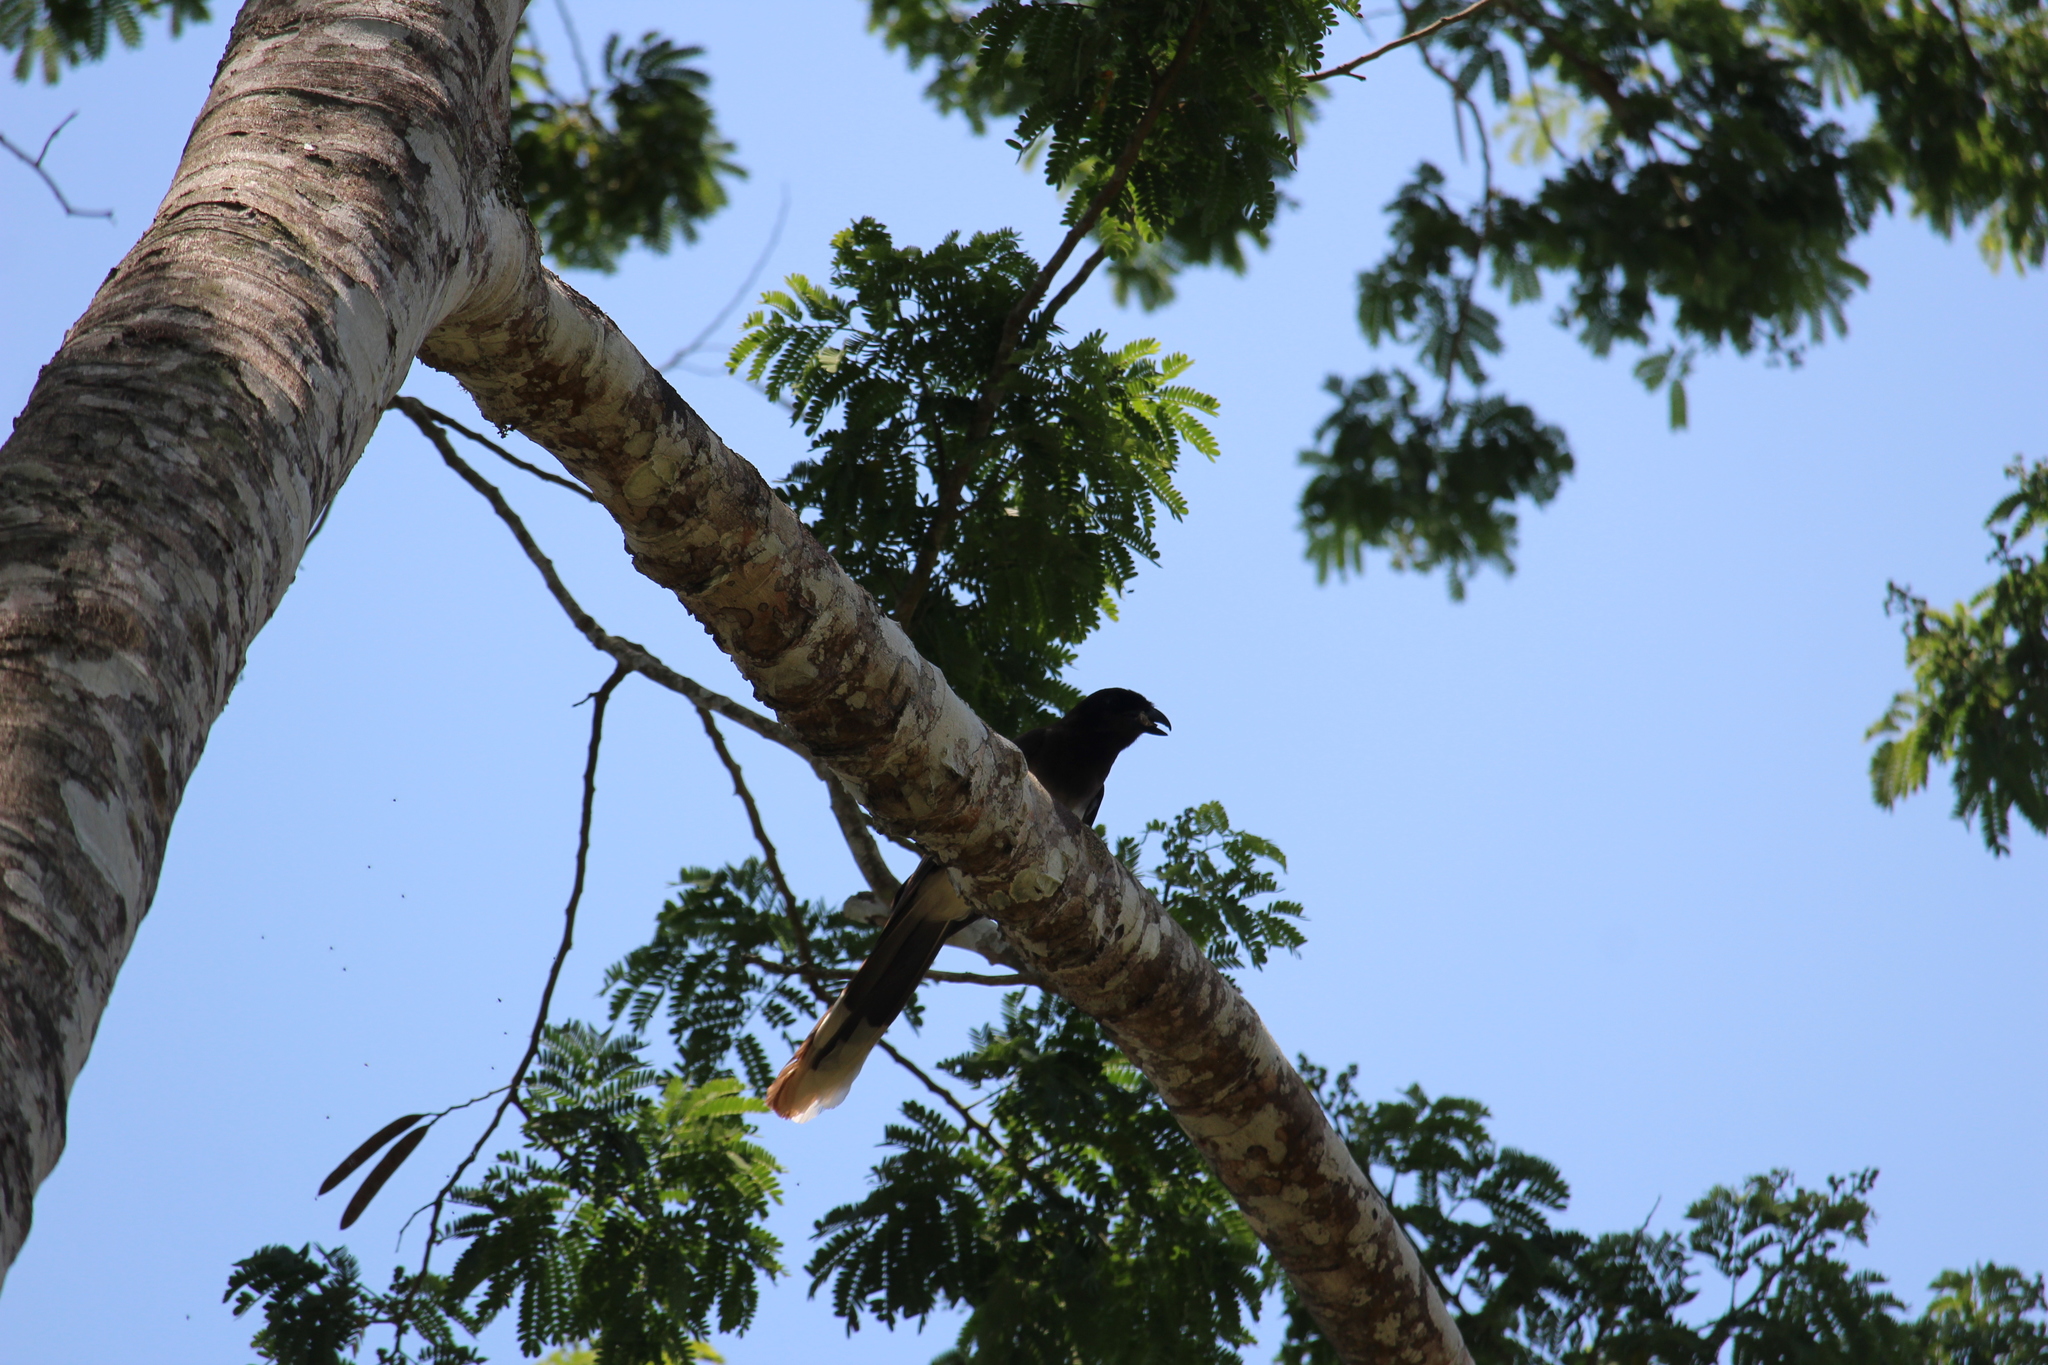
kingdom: Animalia
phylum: Chordata
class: Aves
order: Passeriformes
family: Corvidae
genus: Psilorhinus
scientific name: Psilorhinus morio
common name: Brown jay
